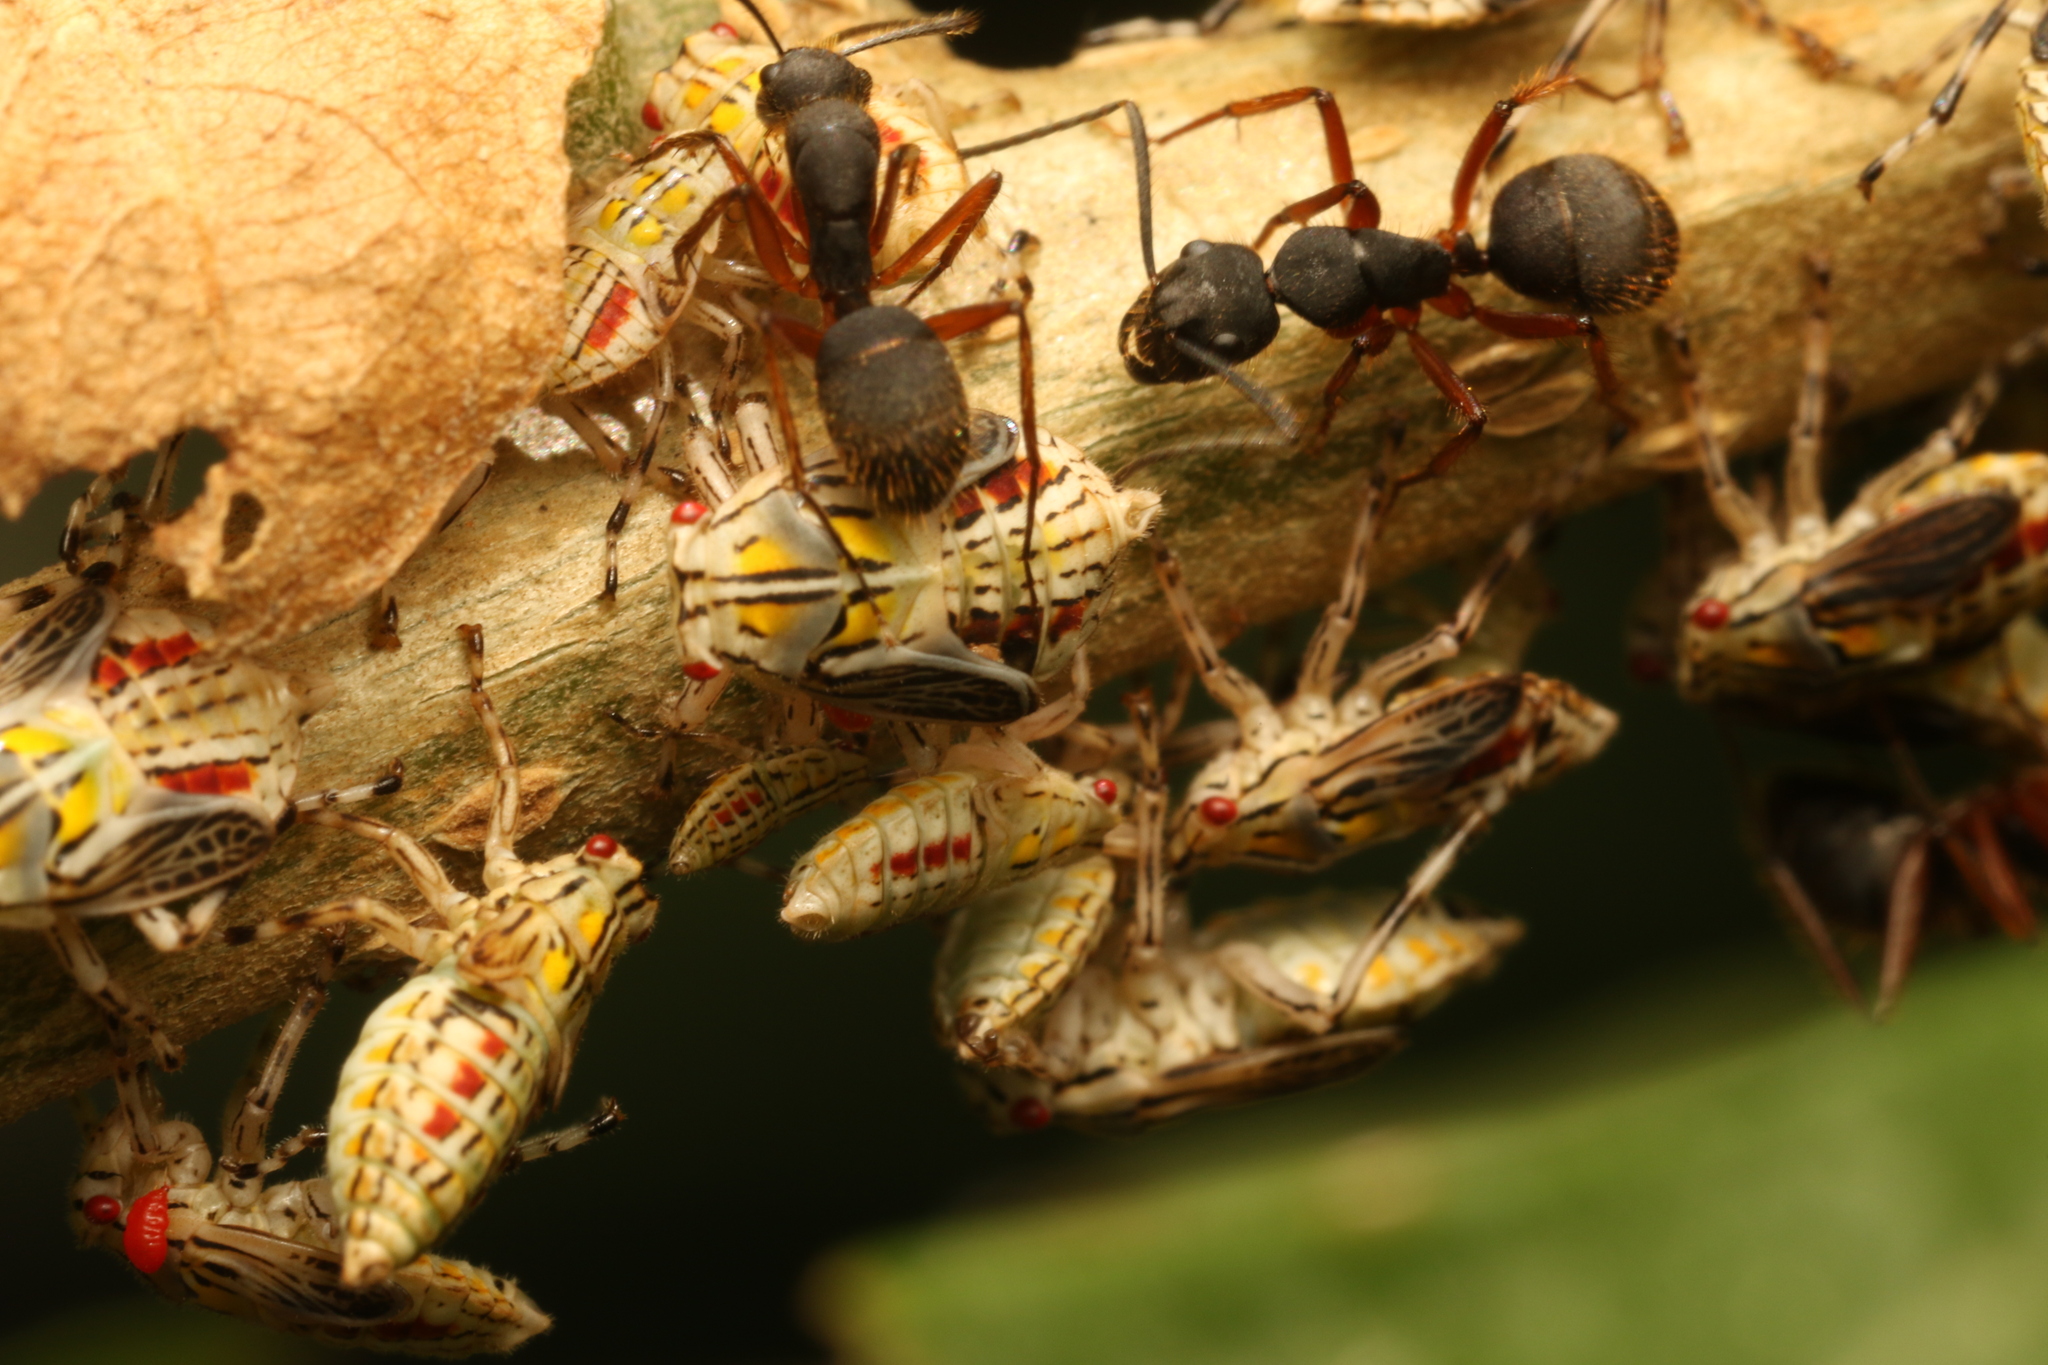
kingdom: Animalia
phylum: Arthropoda
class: Insecta
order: Hymenoptera
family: Formicidae
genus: Camponotus
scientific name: Camponotus rufipes
